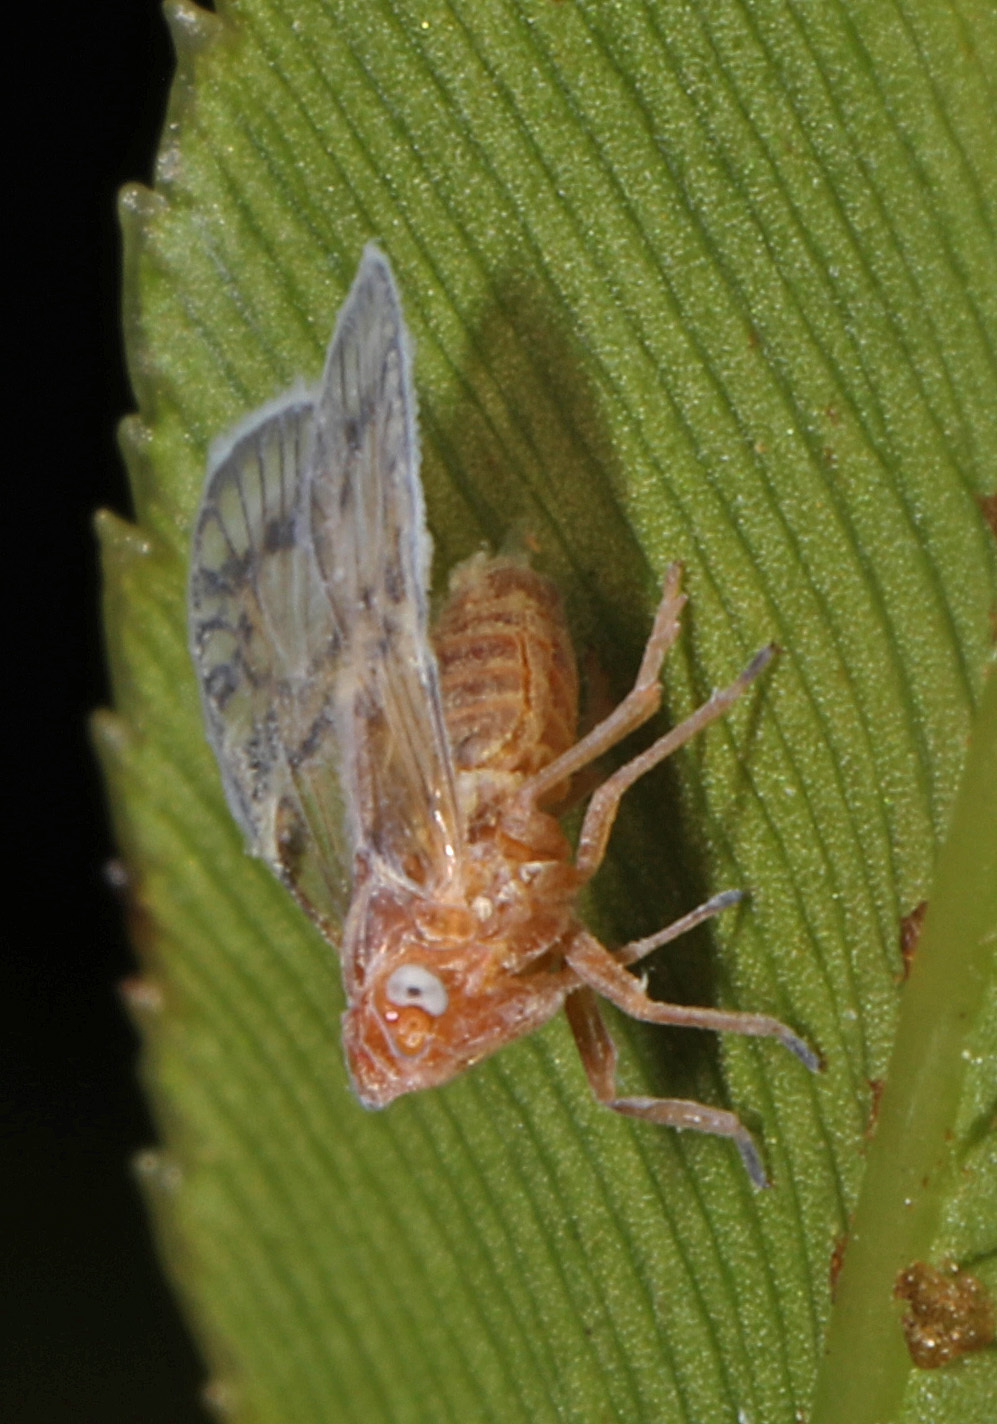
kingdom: Animalia
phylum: Arthropoda
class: Insecta
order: Hemiptera
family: Cixiidae
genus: Bothriocera
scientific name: Bothriocera drakei
